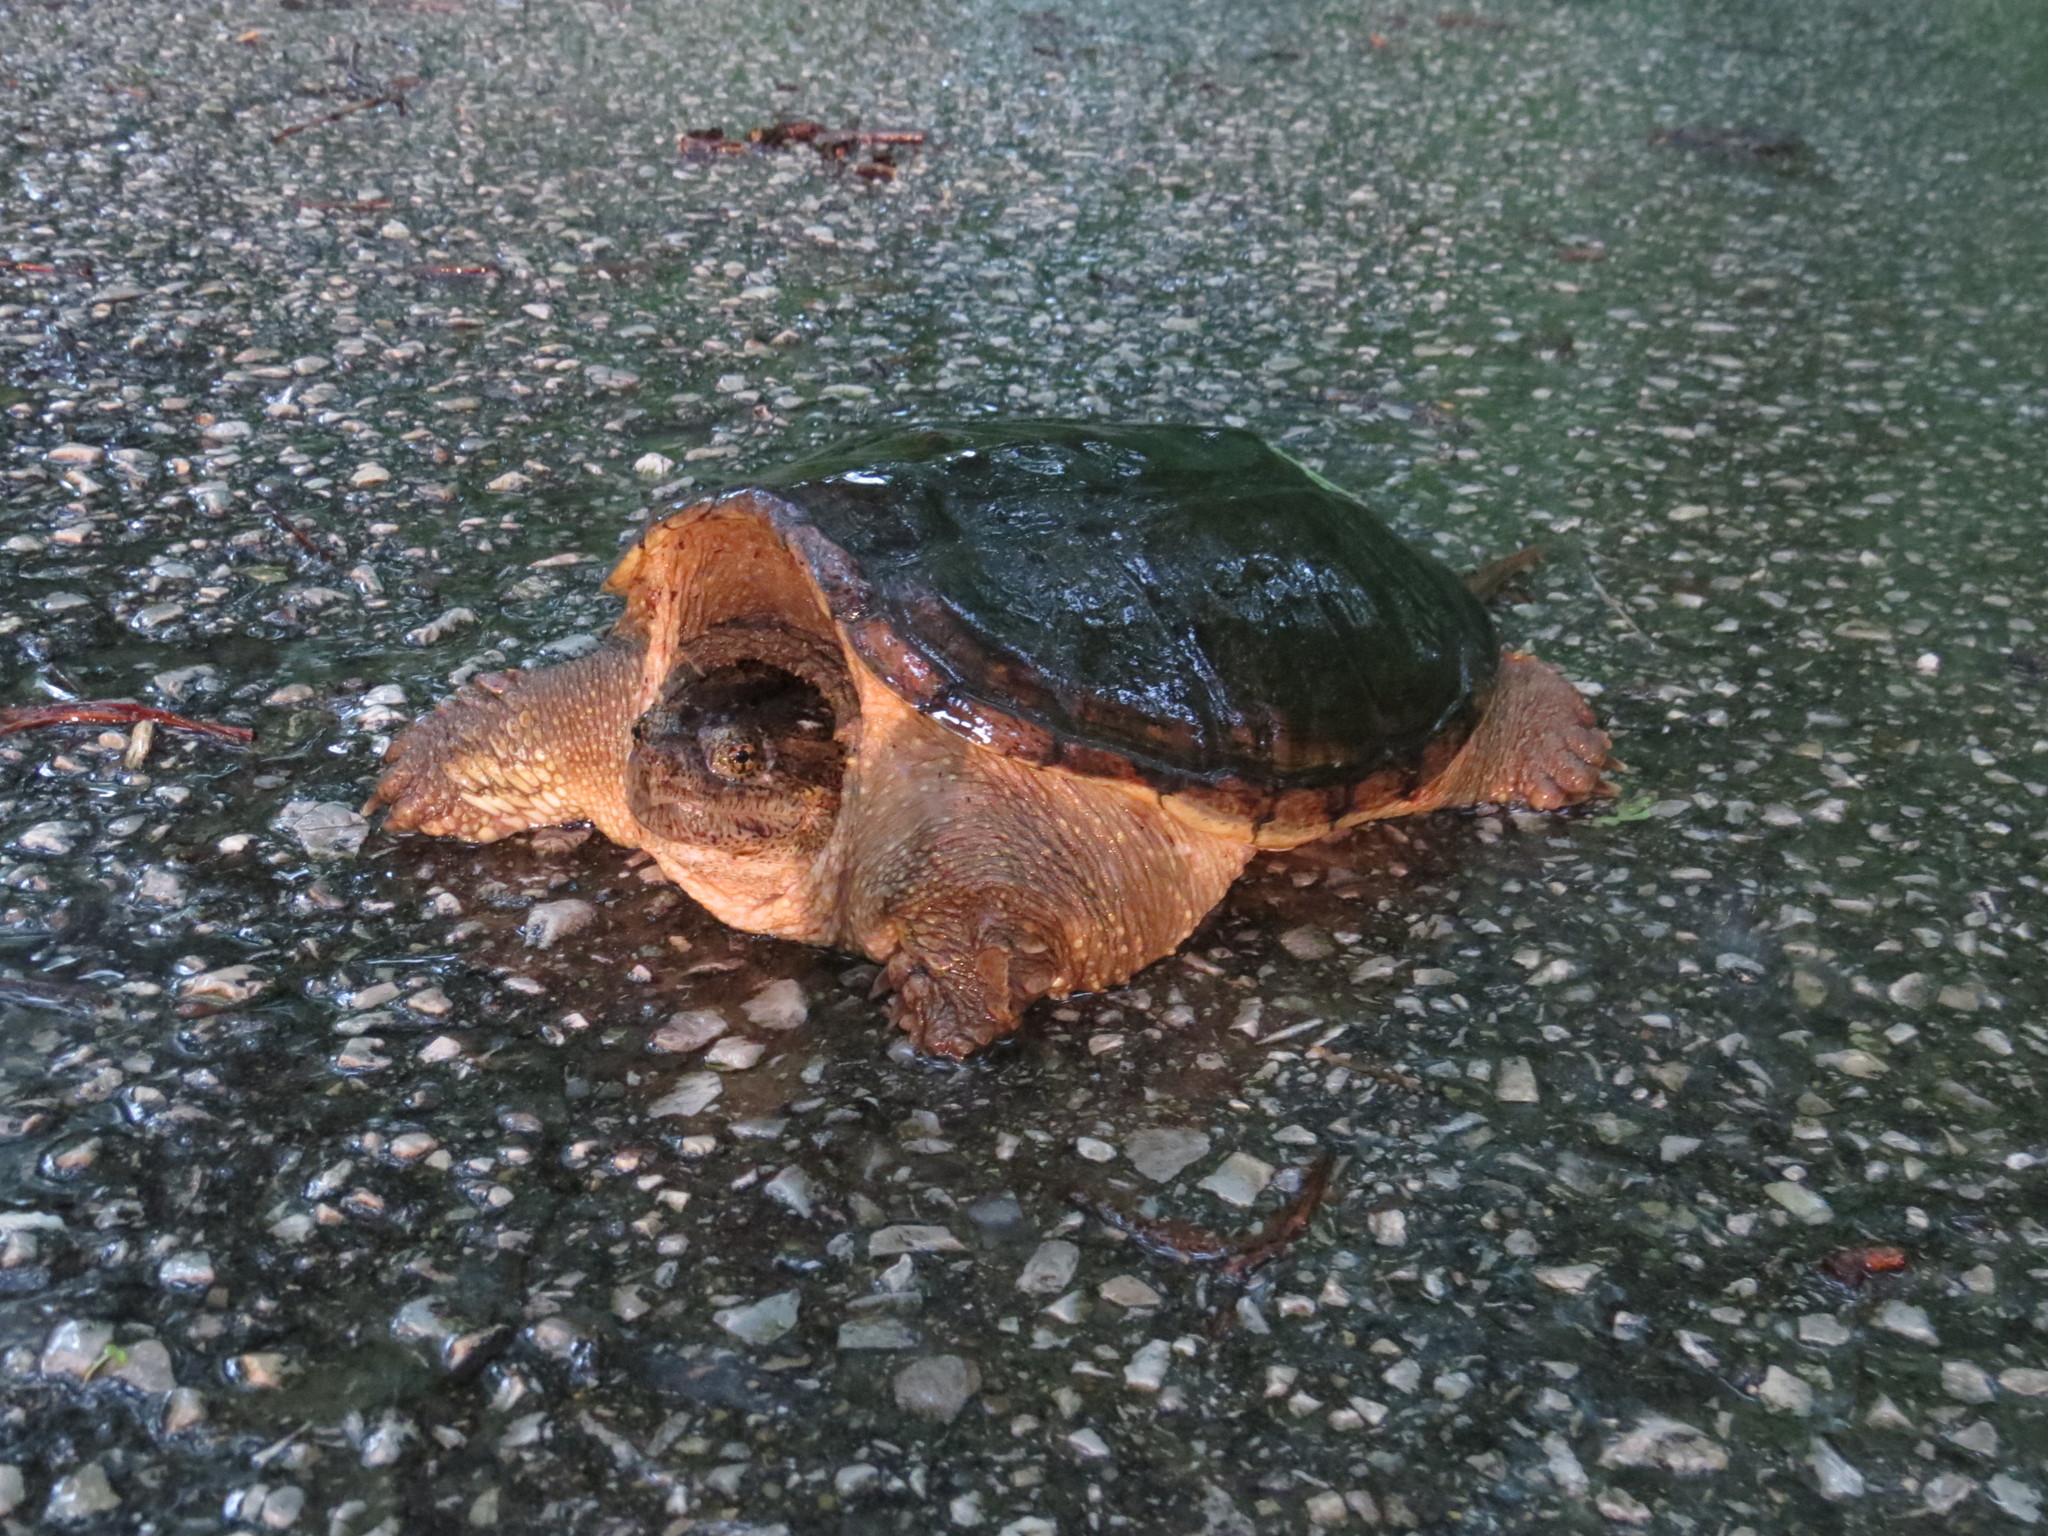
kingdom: Animalia
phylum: Chordata
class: Testudines
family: Chelydridae
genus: Chelydra
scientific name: Chelydra serpentina
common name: Common snapping turtle
